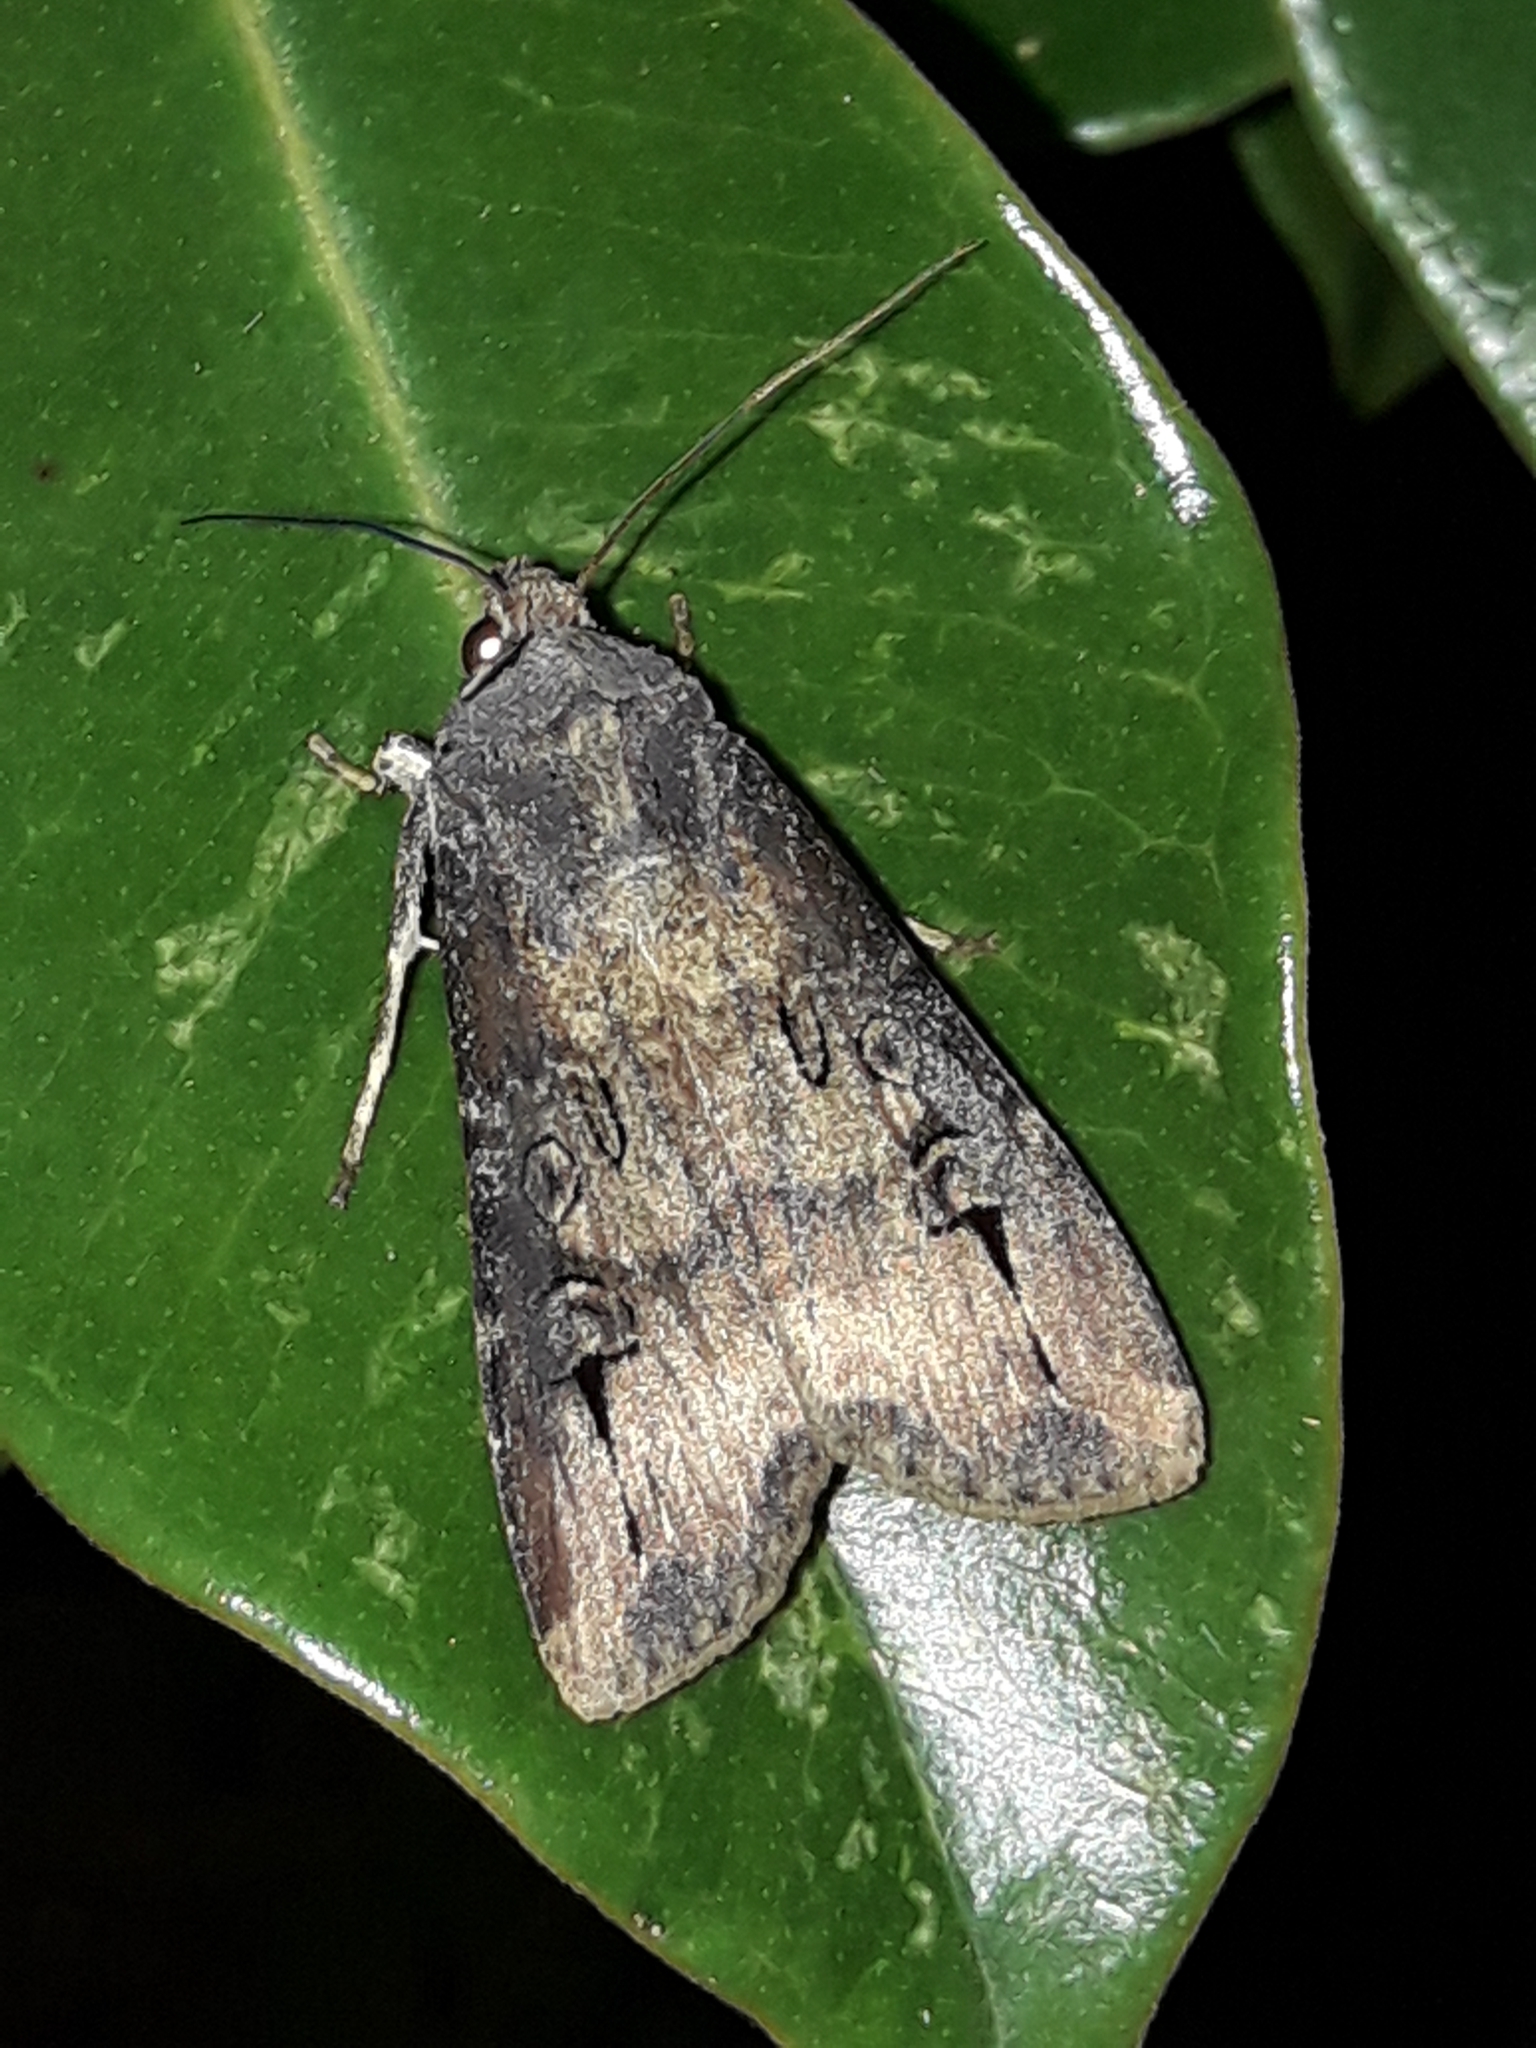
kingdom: Animalia
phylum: Arthropoda
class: Insecta
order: Lepidoptera
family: Noctuidae
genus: Agrotis
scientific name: Agrotis ipsilon
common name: Dark sword-grass
